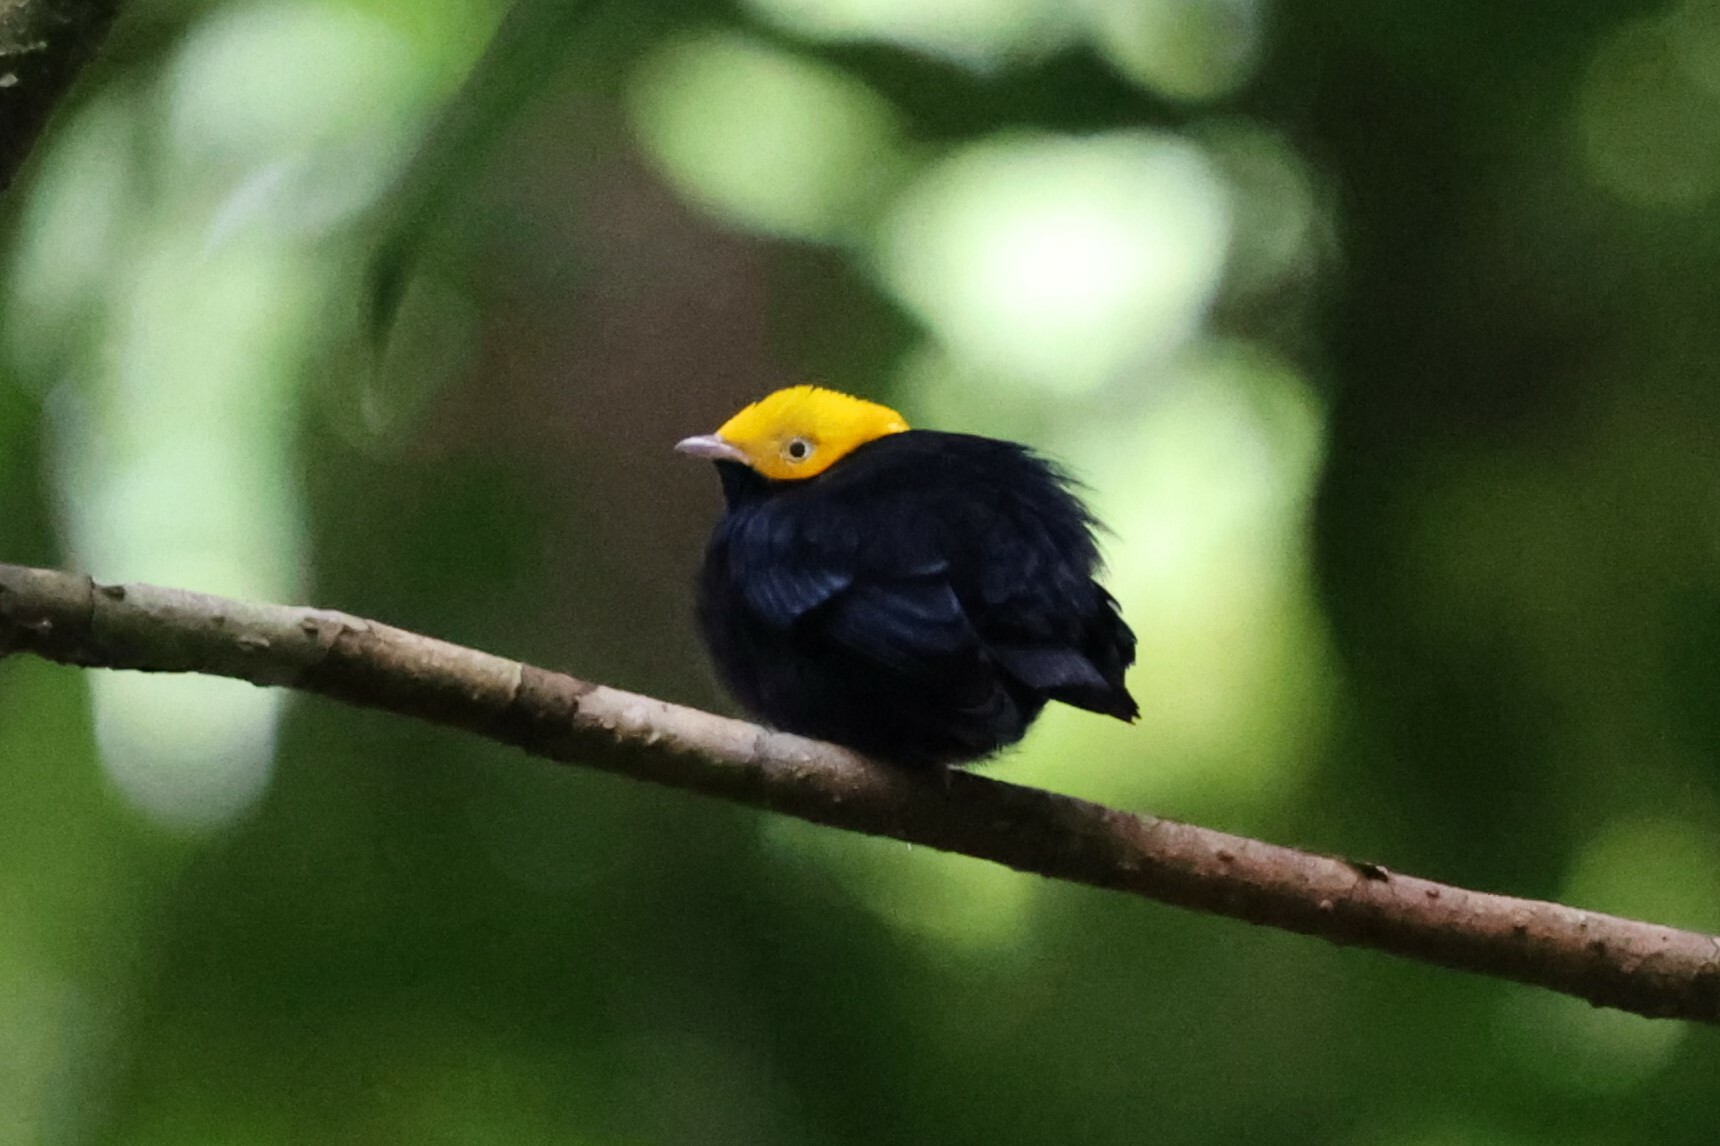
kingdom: Animalia
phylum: Chordata
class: Aves
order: Passeriformes
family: Pipridae
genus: Pipra
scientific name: Pipra erythrocephala
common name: Golden-headed manakin
